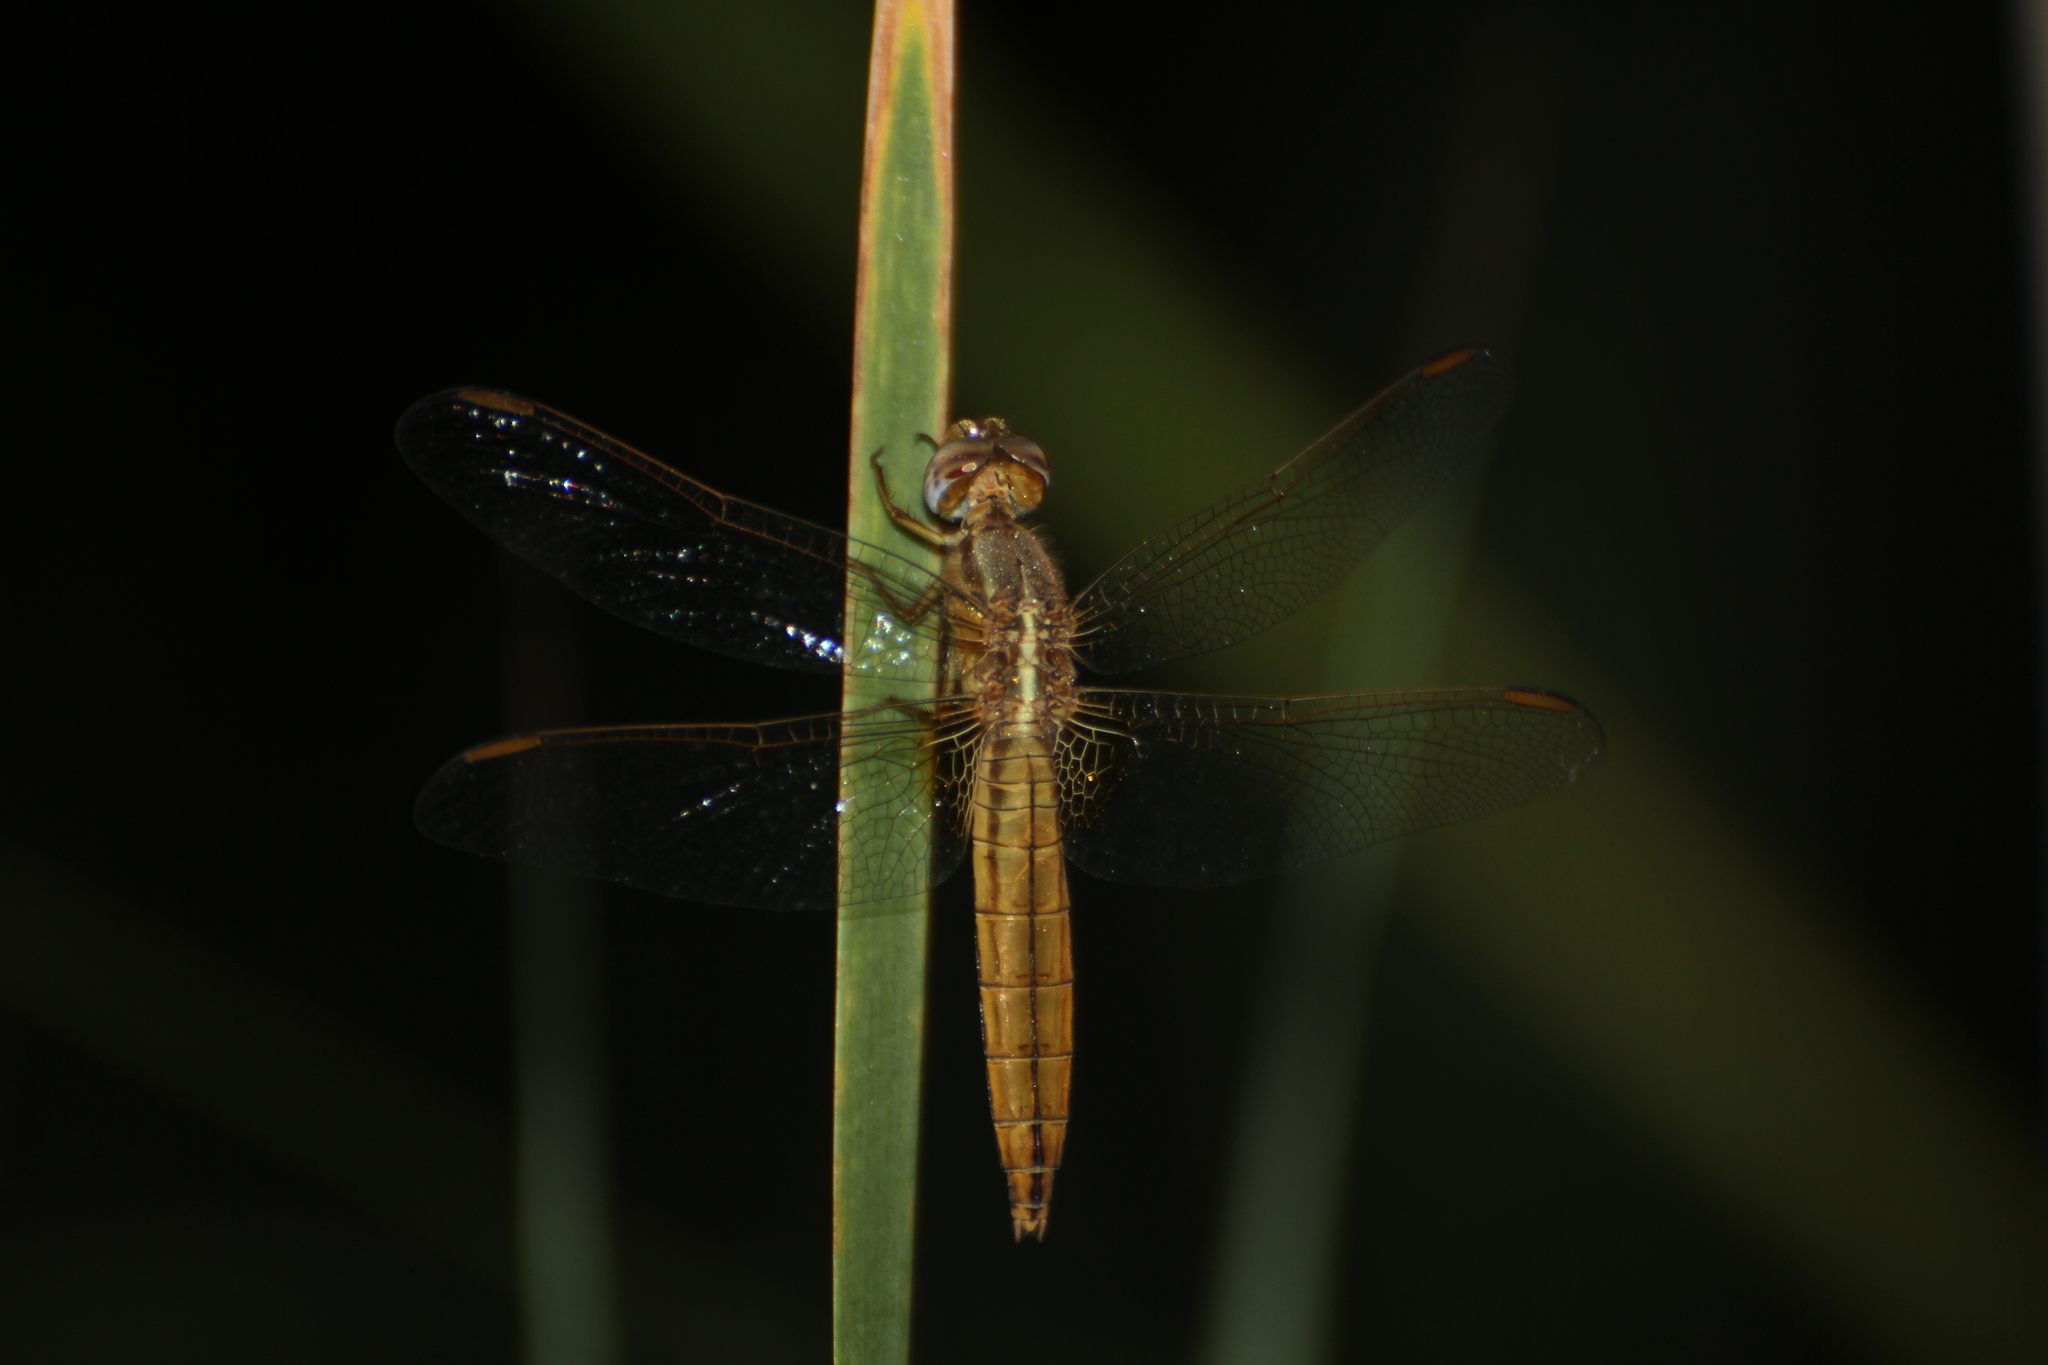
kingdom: Animalia
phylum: Arthropoda
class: Insecta
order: Odonata
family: Libellulidae
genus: Crocothemis
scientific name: Crocothemis erythraea
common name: Scarlet dragonfly
